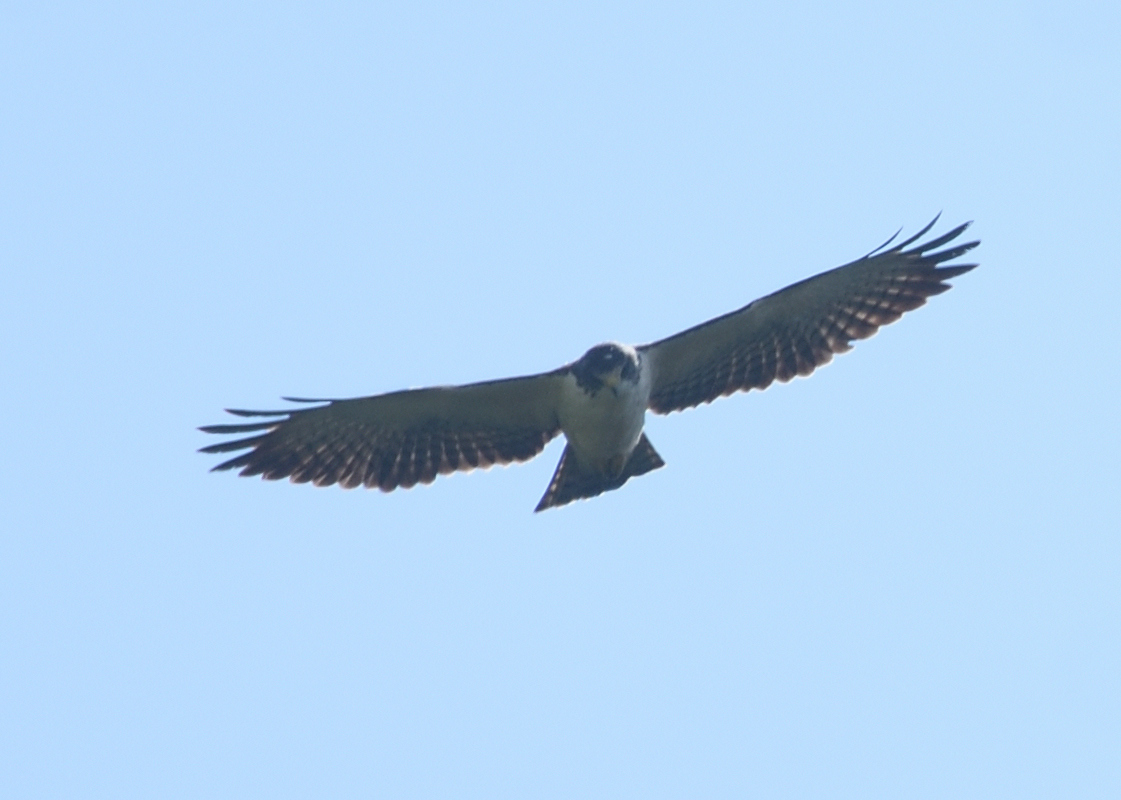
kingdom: Animalia
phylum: Chordata
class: Aves
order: Accipitriformes
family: Accipitridae
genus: Buteo
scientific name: Buteo brachyurus
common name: Short-tailed hawk
